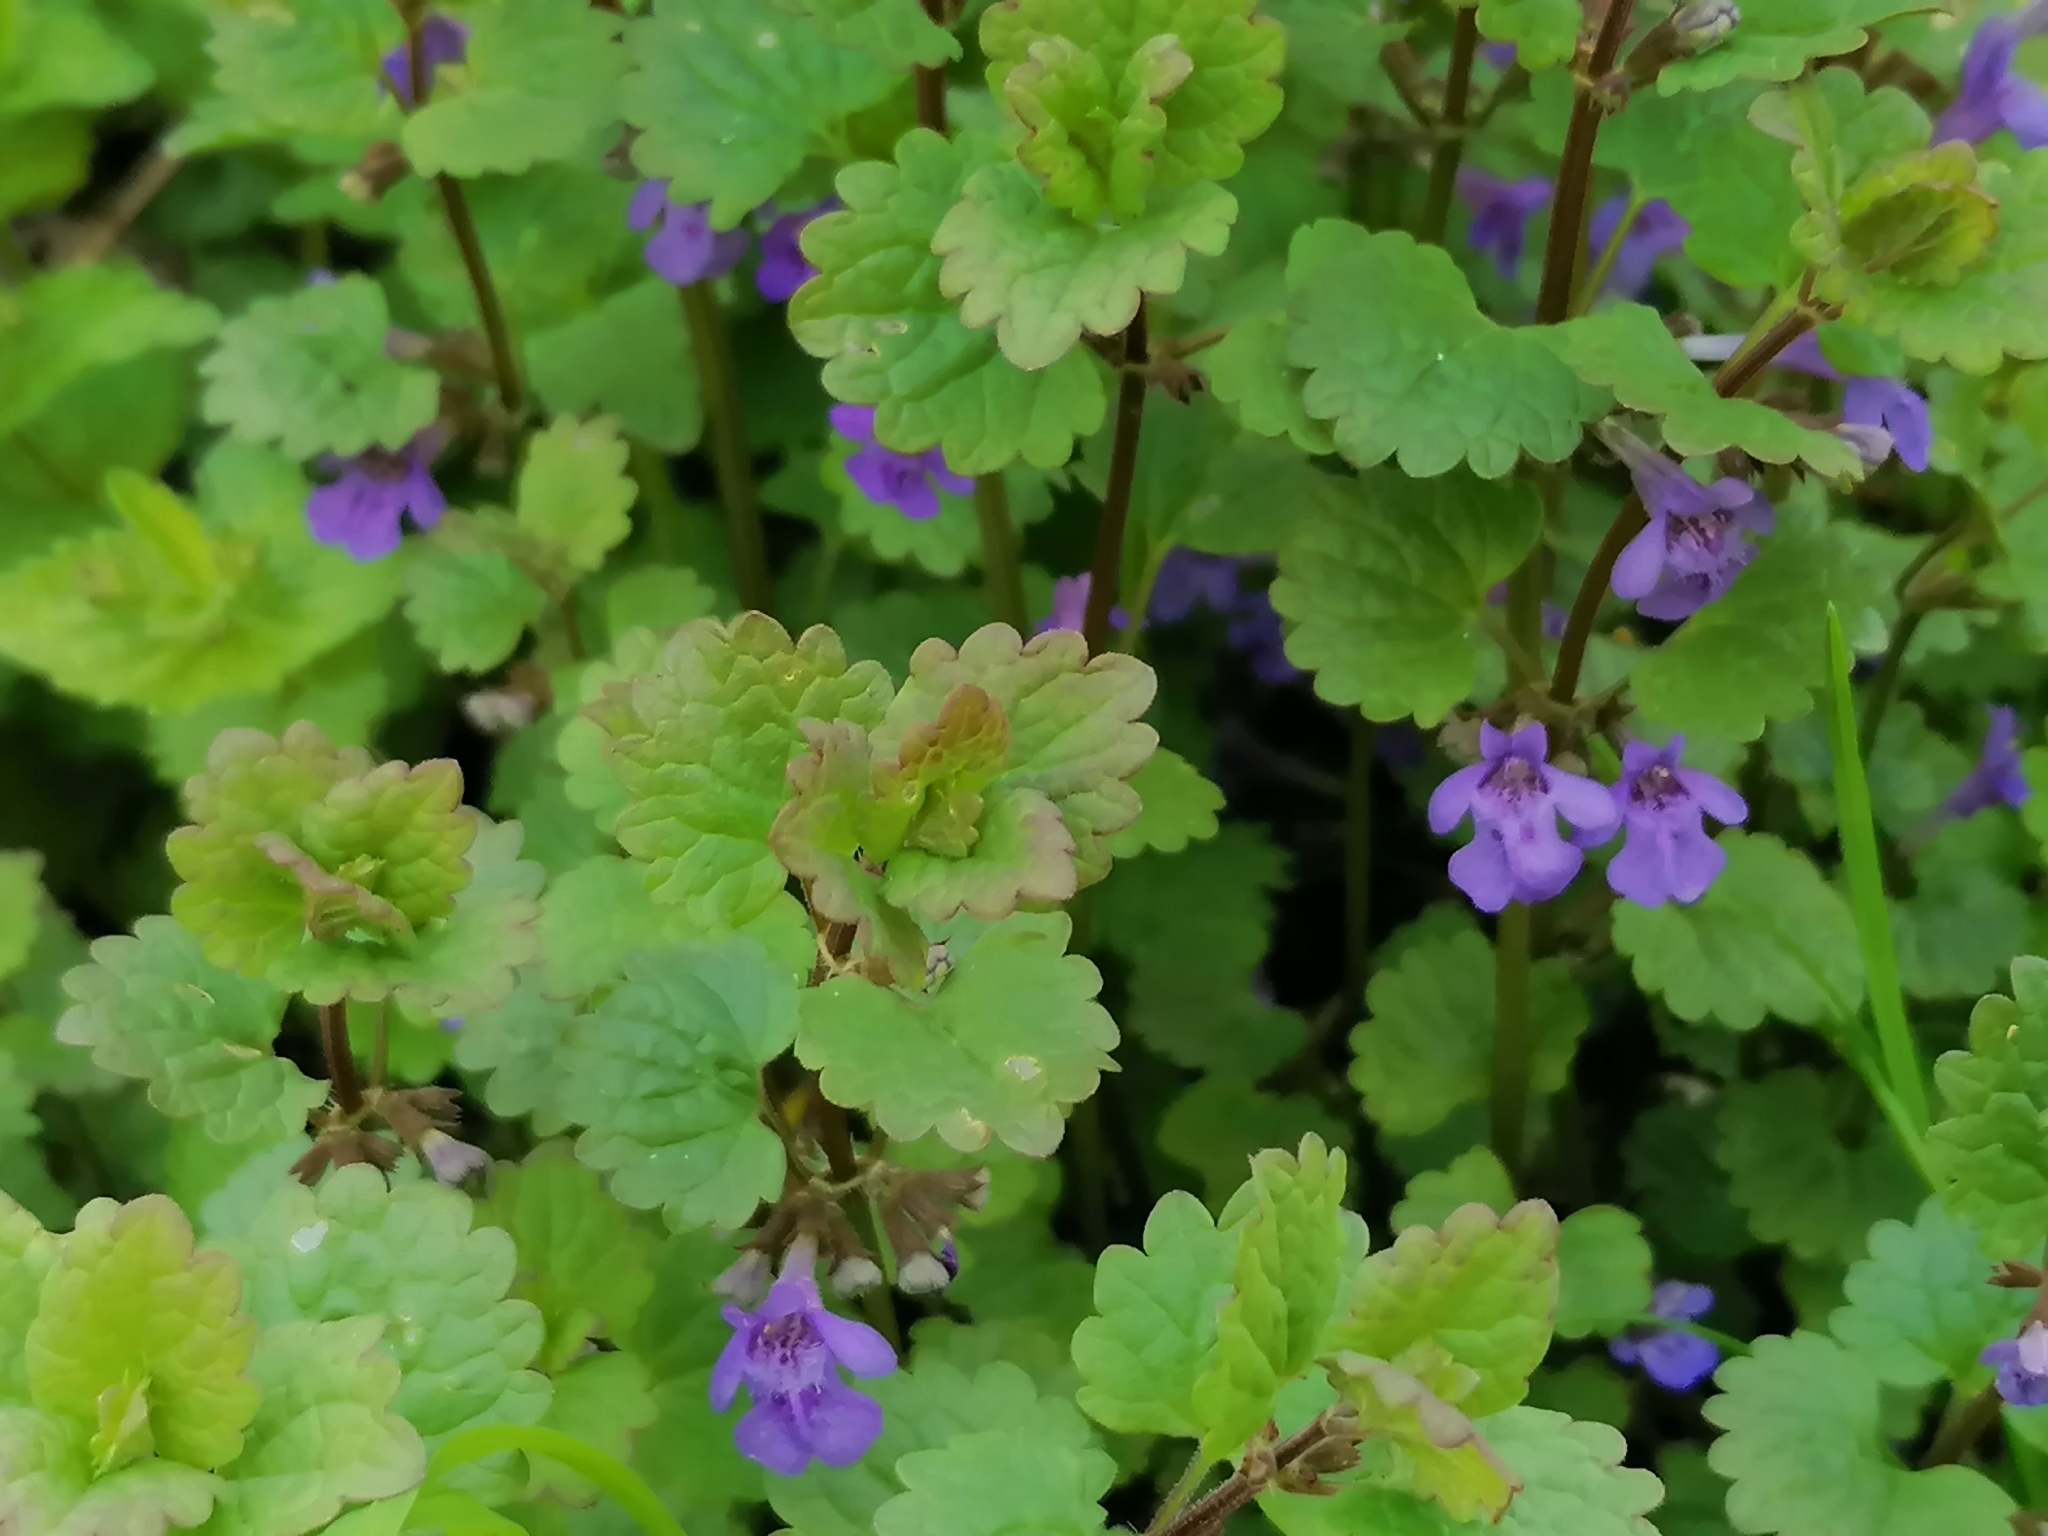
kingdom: Plantae
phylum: Tracheophyta
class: Magnoliopsida
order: Lamiales
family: Lamiaceae
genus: Glechoma
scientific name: Glechoma hederacea
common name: Ground ivy
